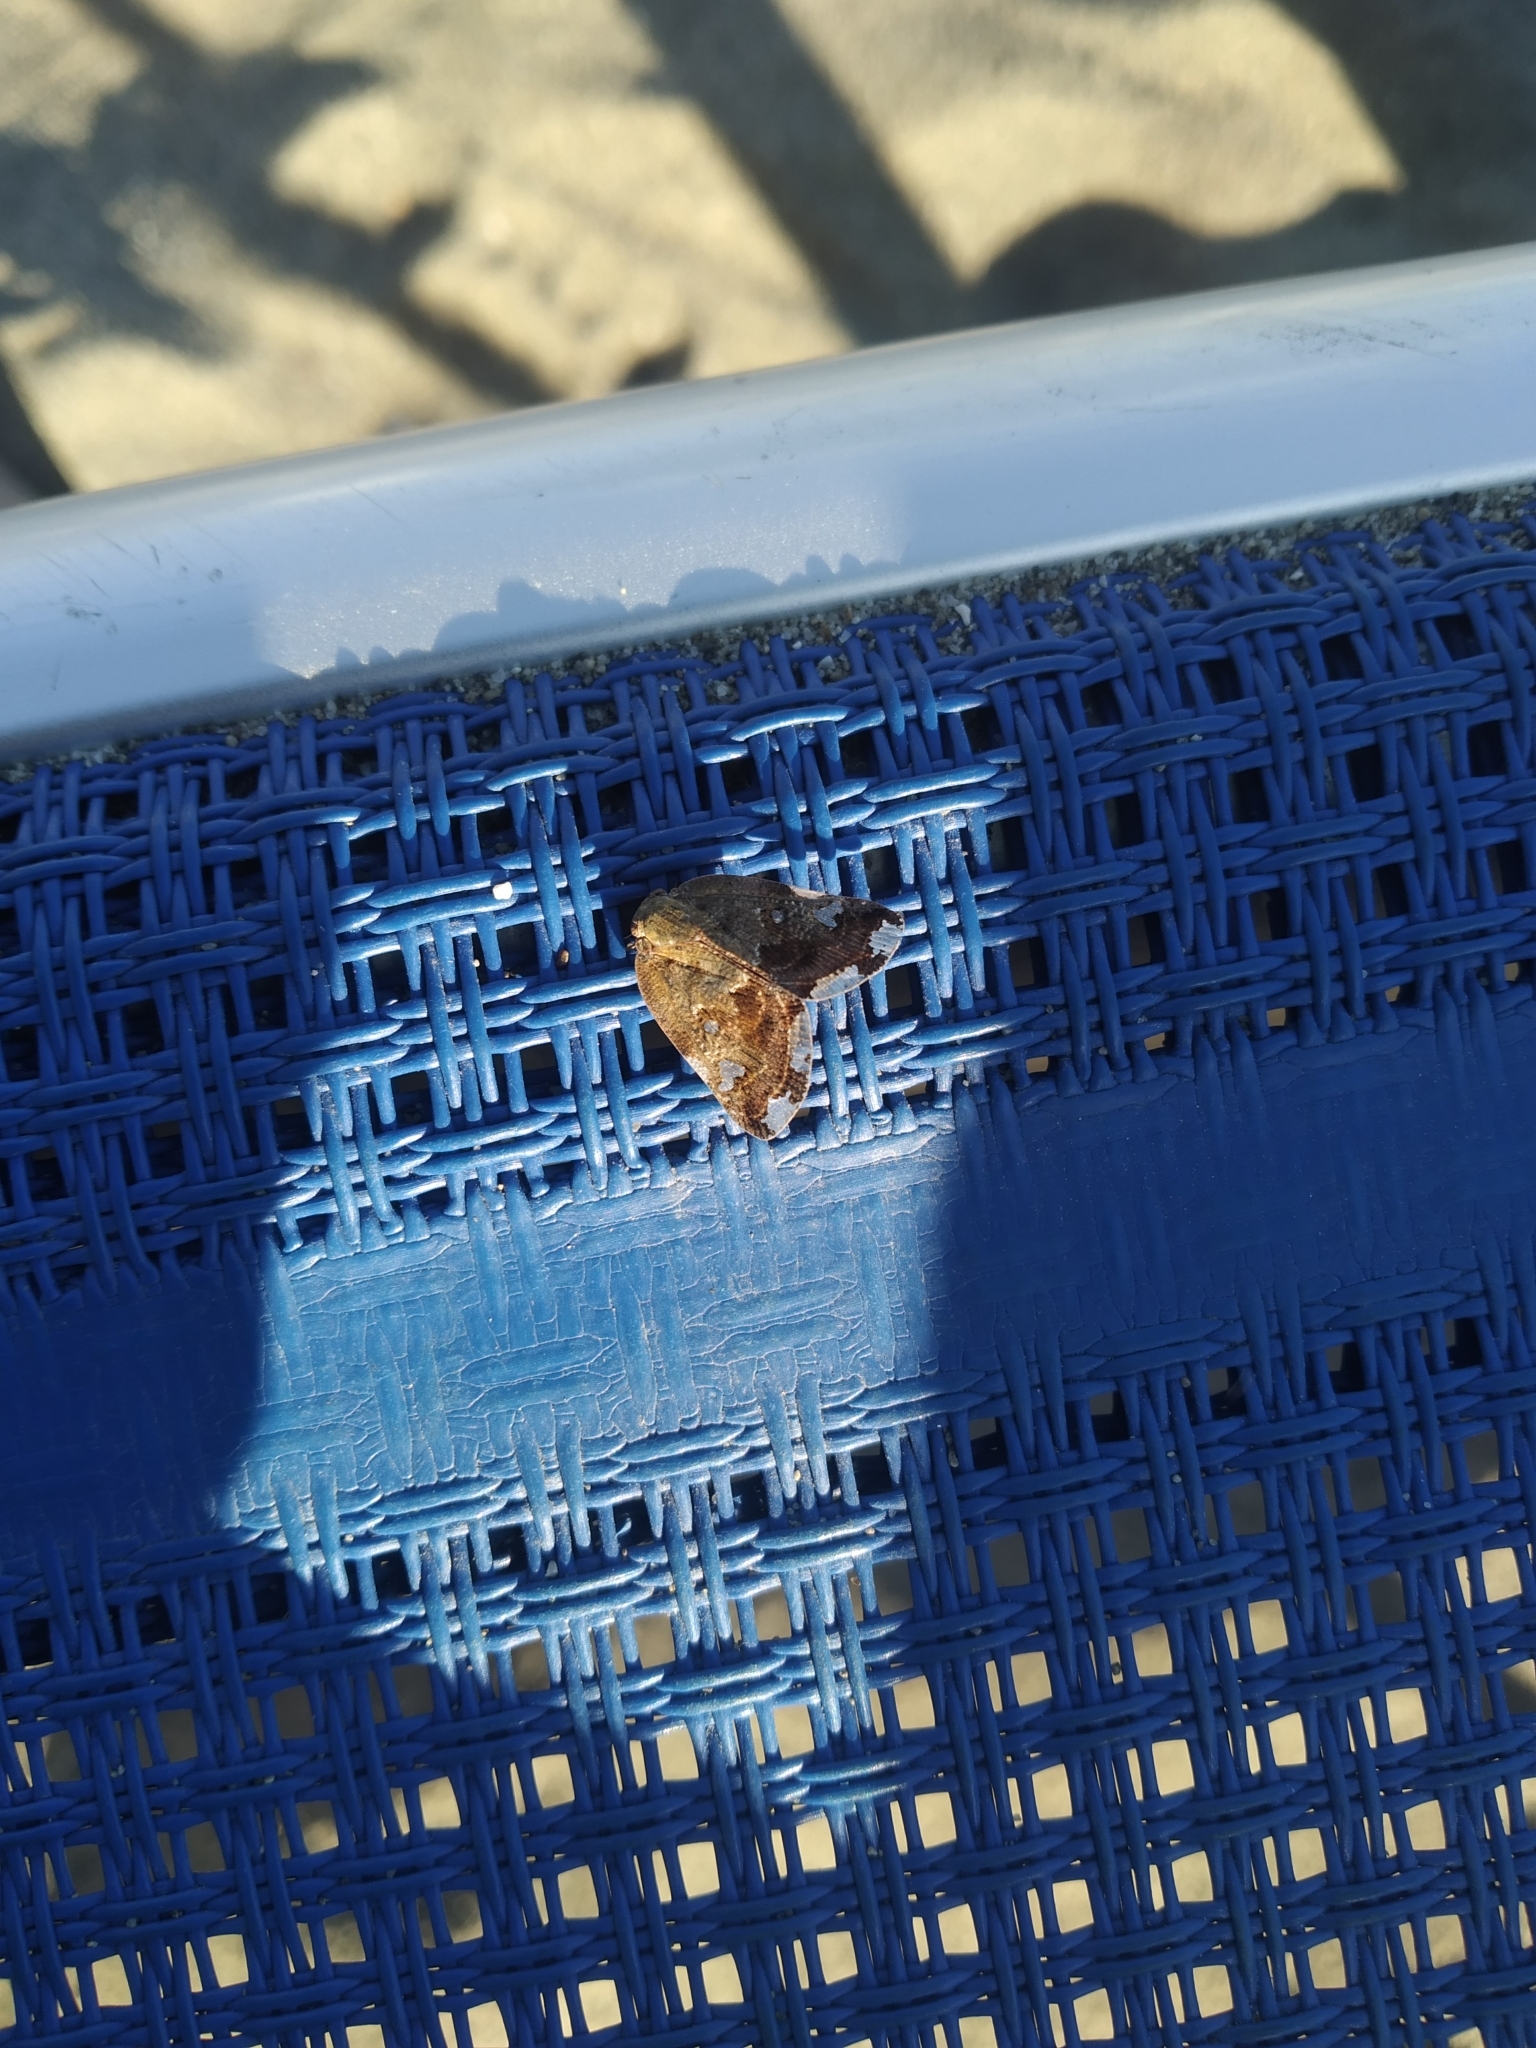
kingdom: Animalia
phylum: Arthropoda
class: Insecta
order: Hemiptera
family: Ricaniidae
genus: Ricania
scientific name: Ricania speculum
